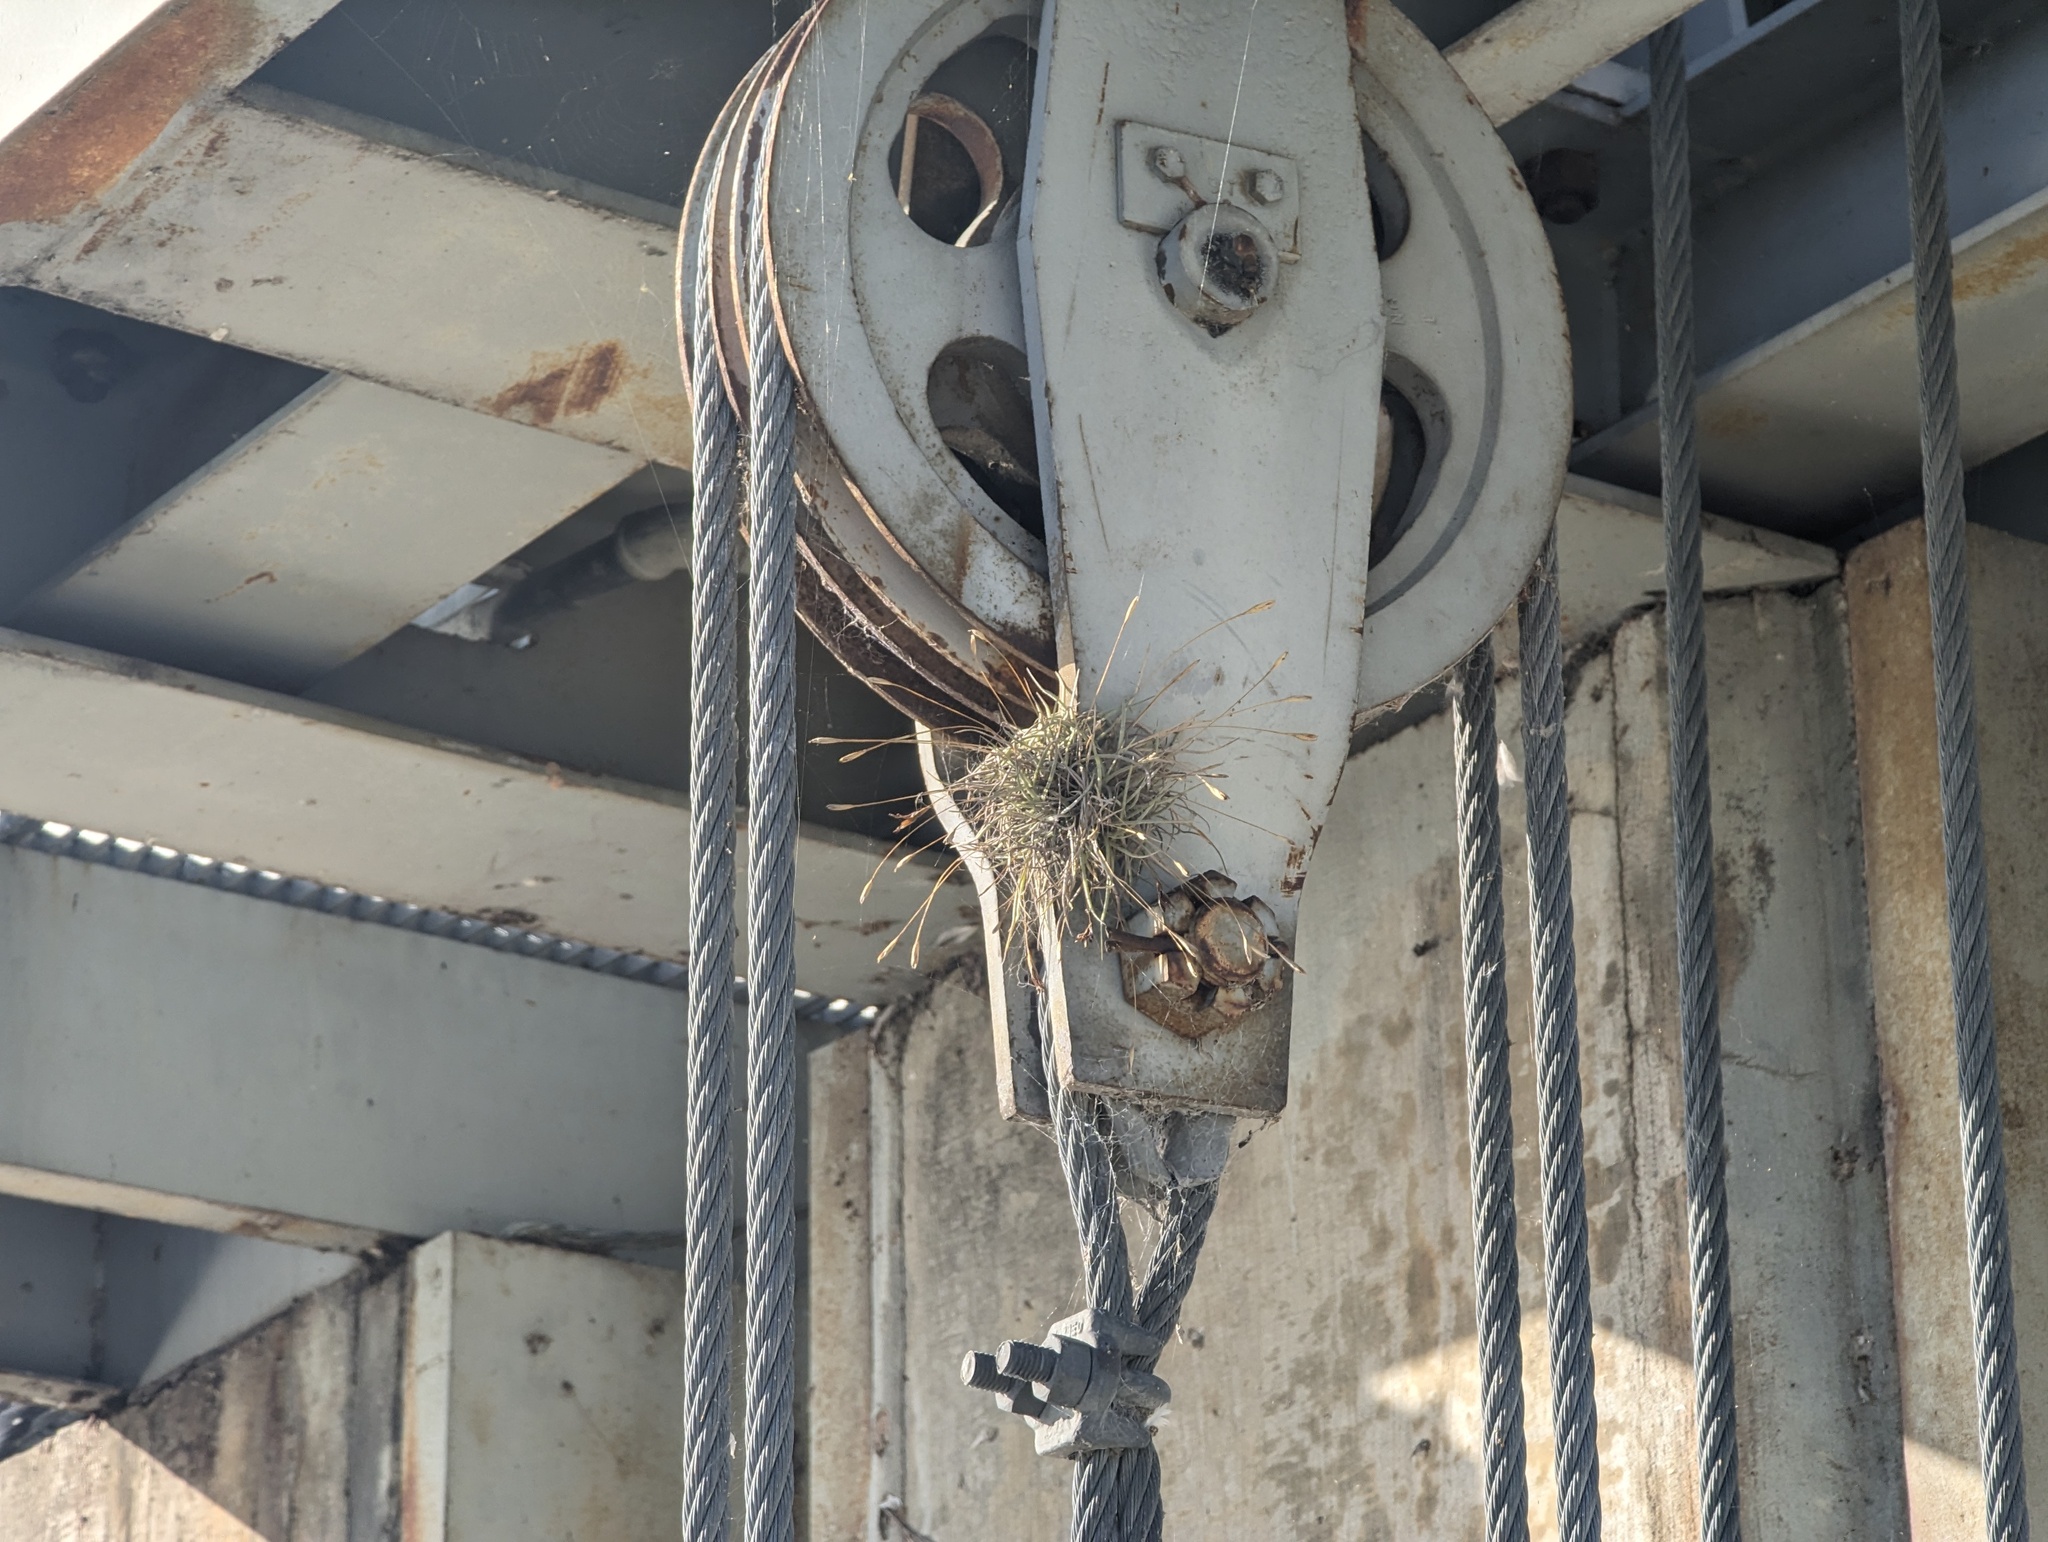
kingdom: Plantae
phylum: Tracheophyta
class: Liliopsida
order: Poales
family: Bromeliaceae
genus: Tillandsia
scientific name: Tillandsia recurvata
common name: Small ballmoss
